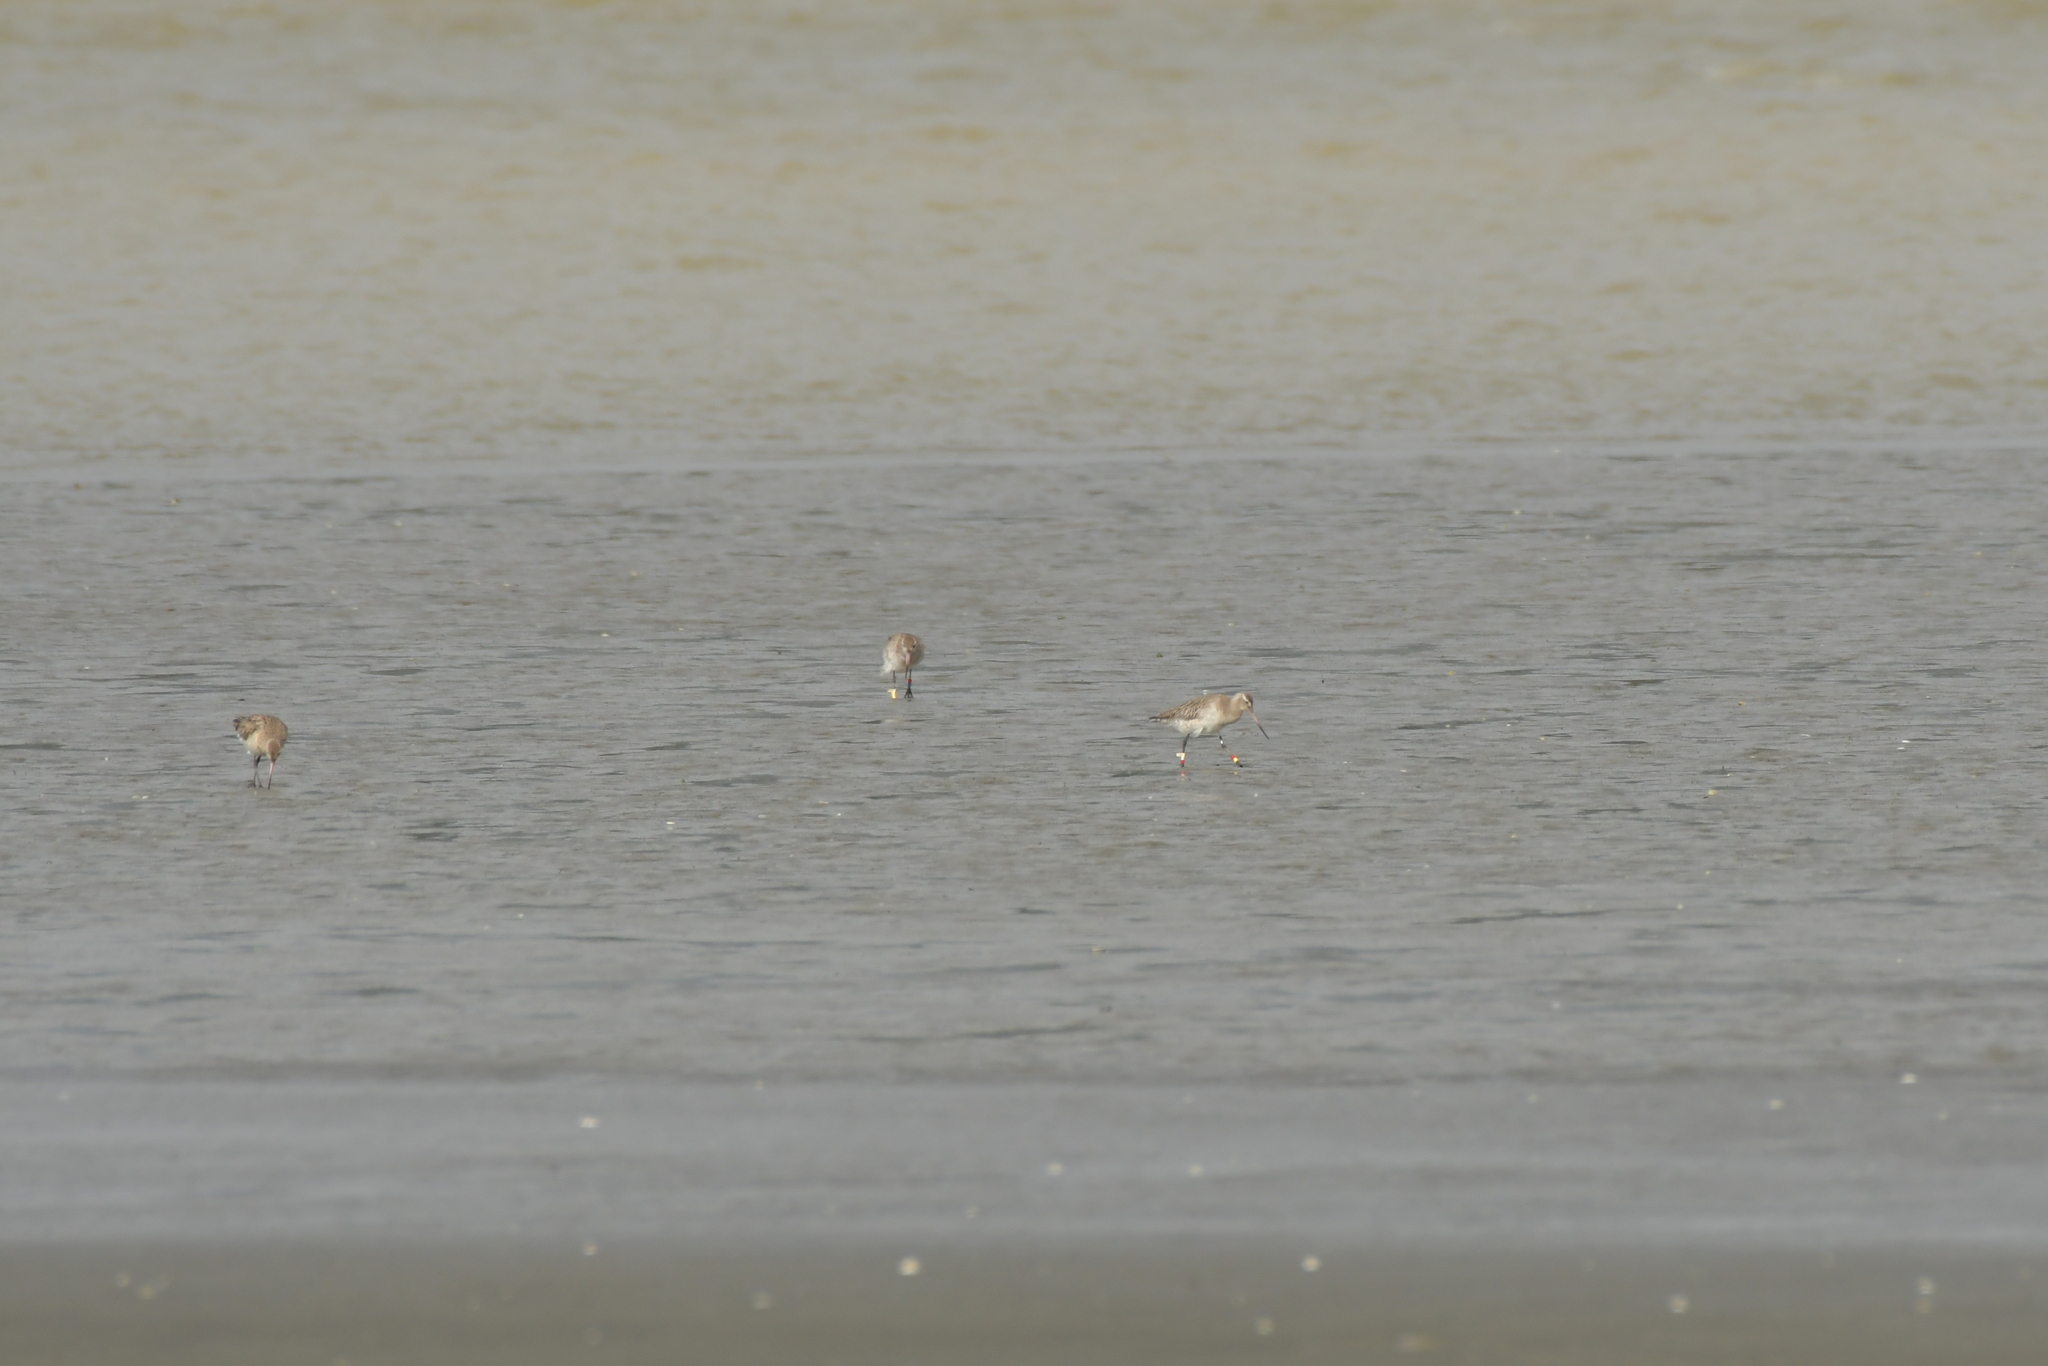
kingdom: Animalia
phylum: Chordata
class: Aves
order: Charadriiformes
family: Scolopacidae
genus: Limosa
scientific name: Limosa lapponica
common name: Bar-tailed godwit
